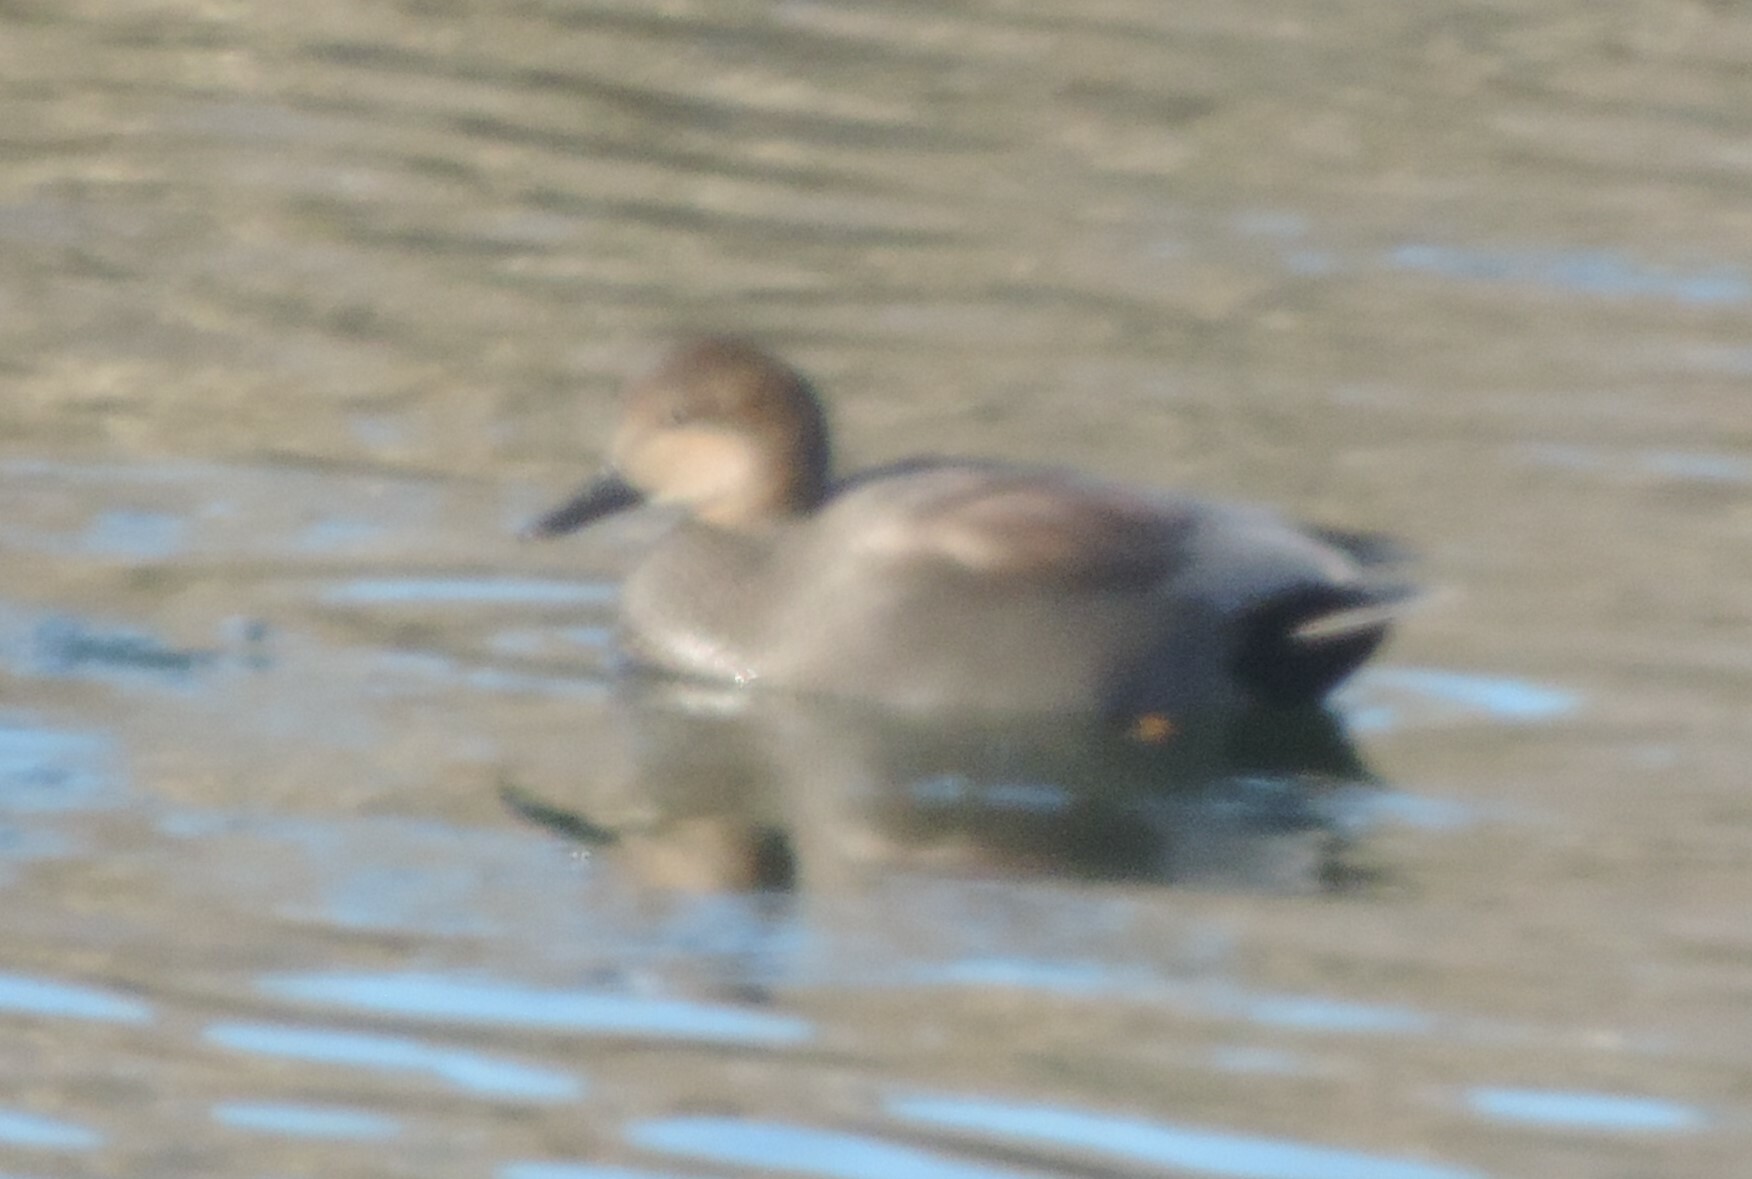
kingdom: Animalia
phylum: Chordata
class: Aves
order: Anseriformes
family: Anatidae
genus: Mareca
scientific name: Mareca strepera
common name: Gadwall
